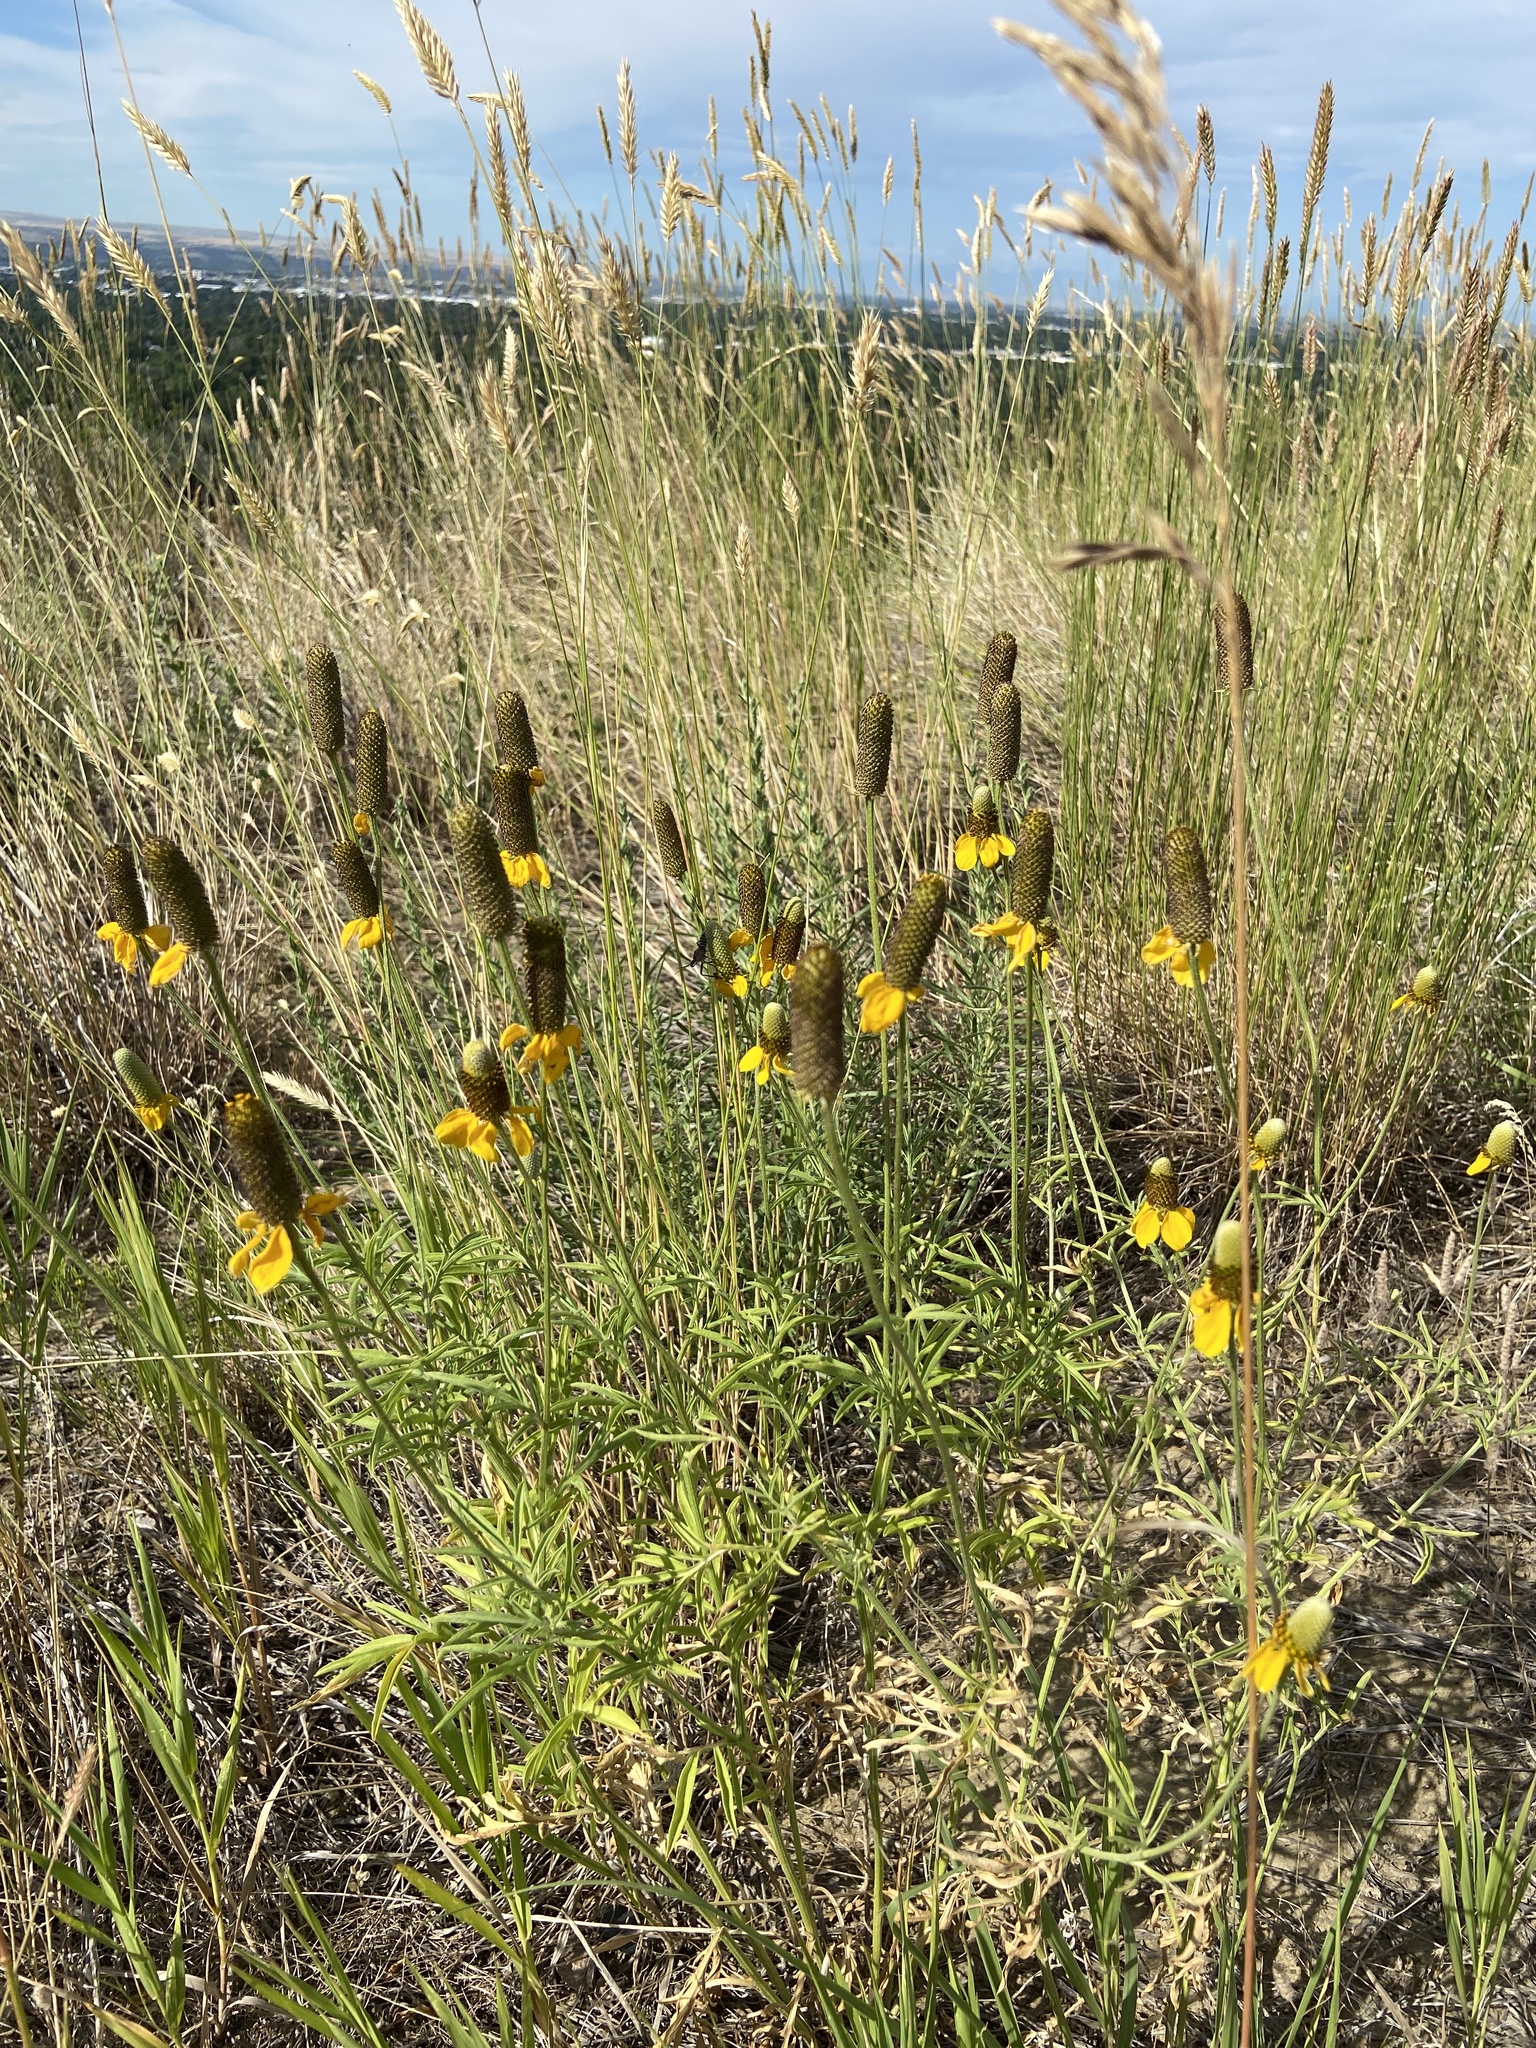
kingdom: Plantae
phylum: Tracheophyta
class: Magnoliopsida
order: Asterales
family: Asteraceae
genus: Ratibida
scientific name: Ratibida columnifera
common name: Prairie coneflower
